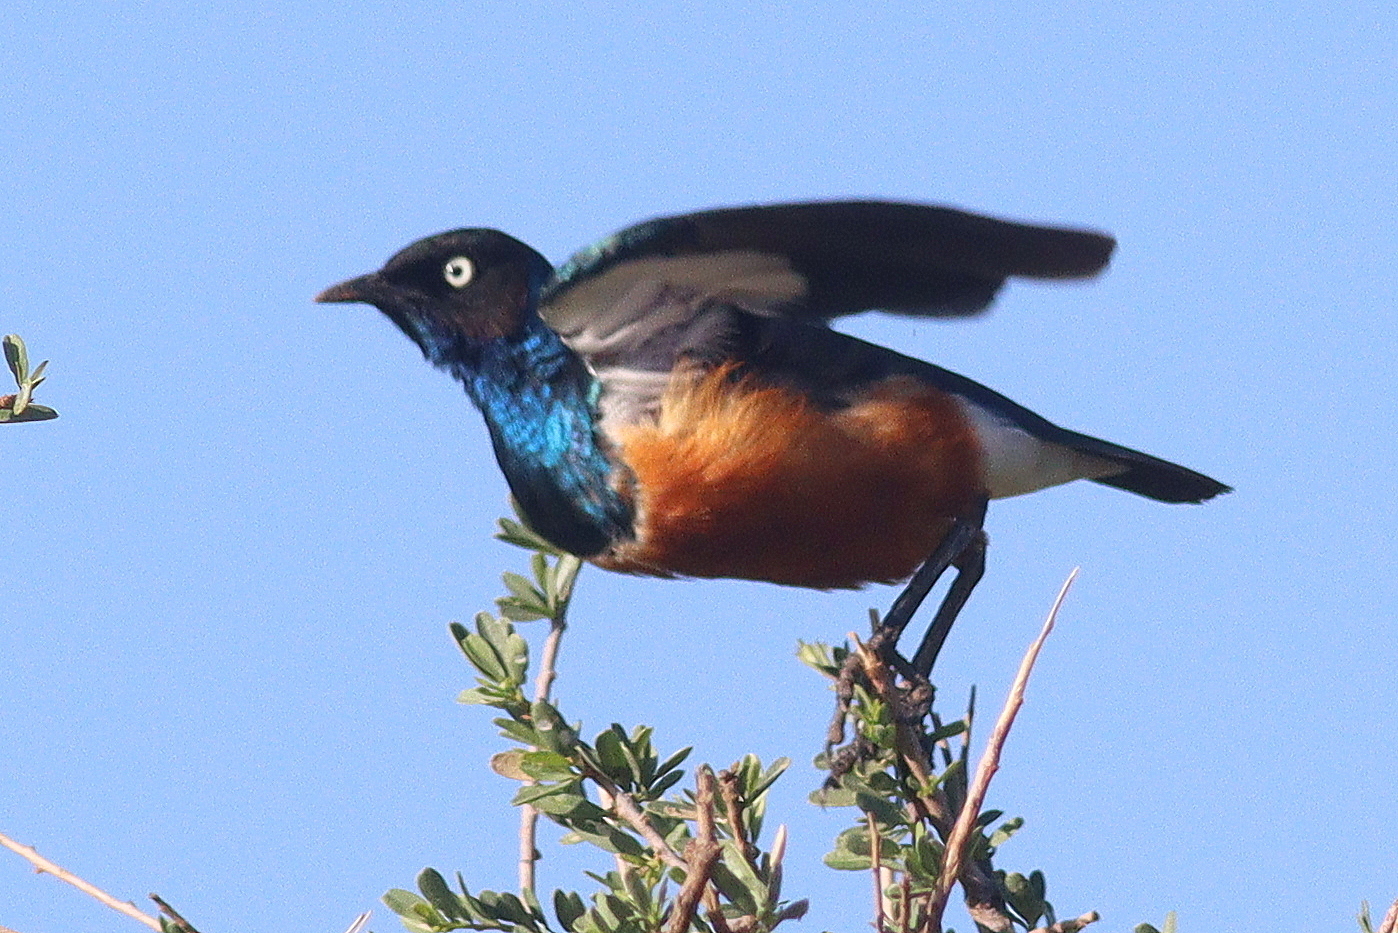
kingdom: Animalia
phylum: Chordata
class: Aves
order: Passeriformes
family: Sturnidae
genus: Lamprotornis
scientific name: Lamprotornis superbus
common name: Superb starling
